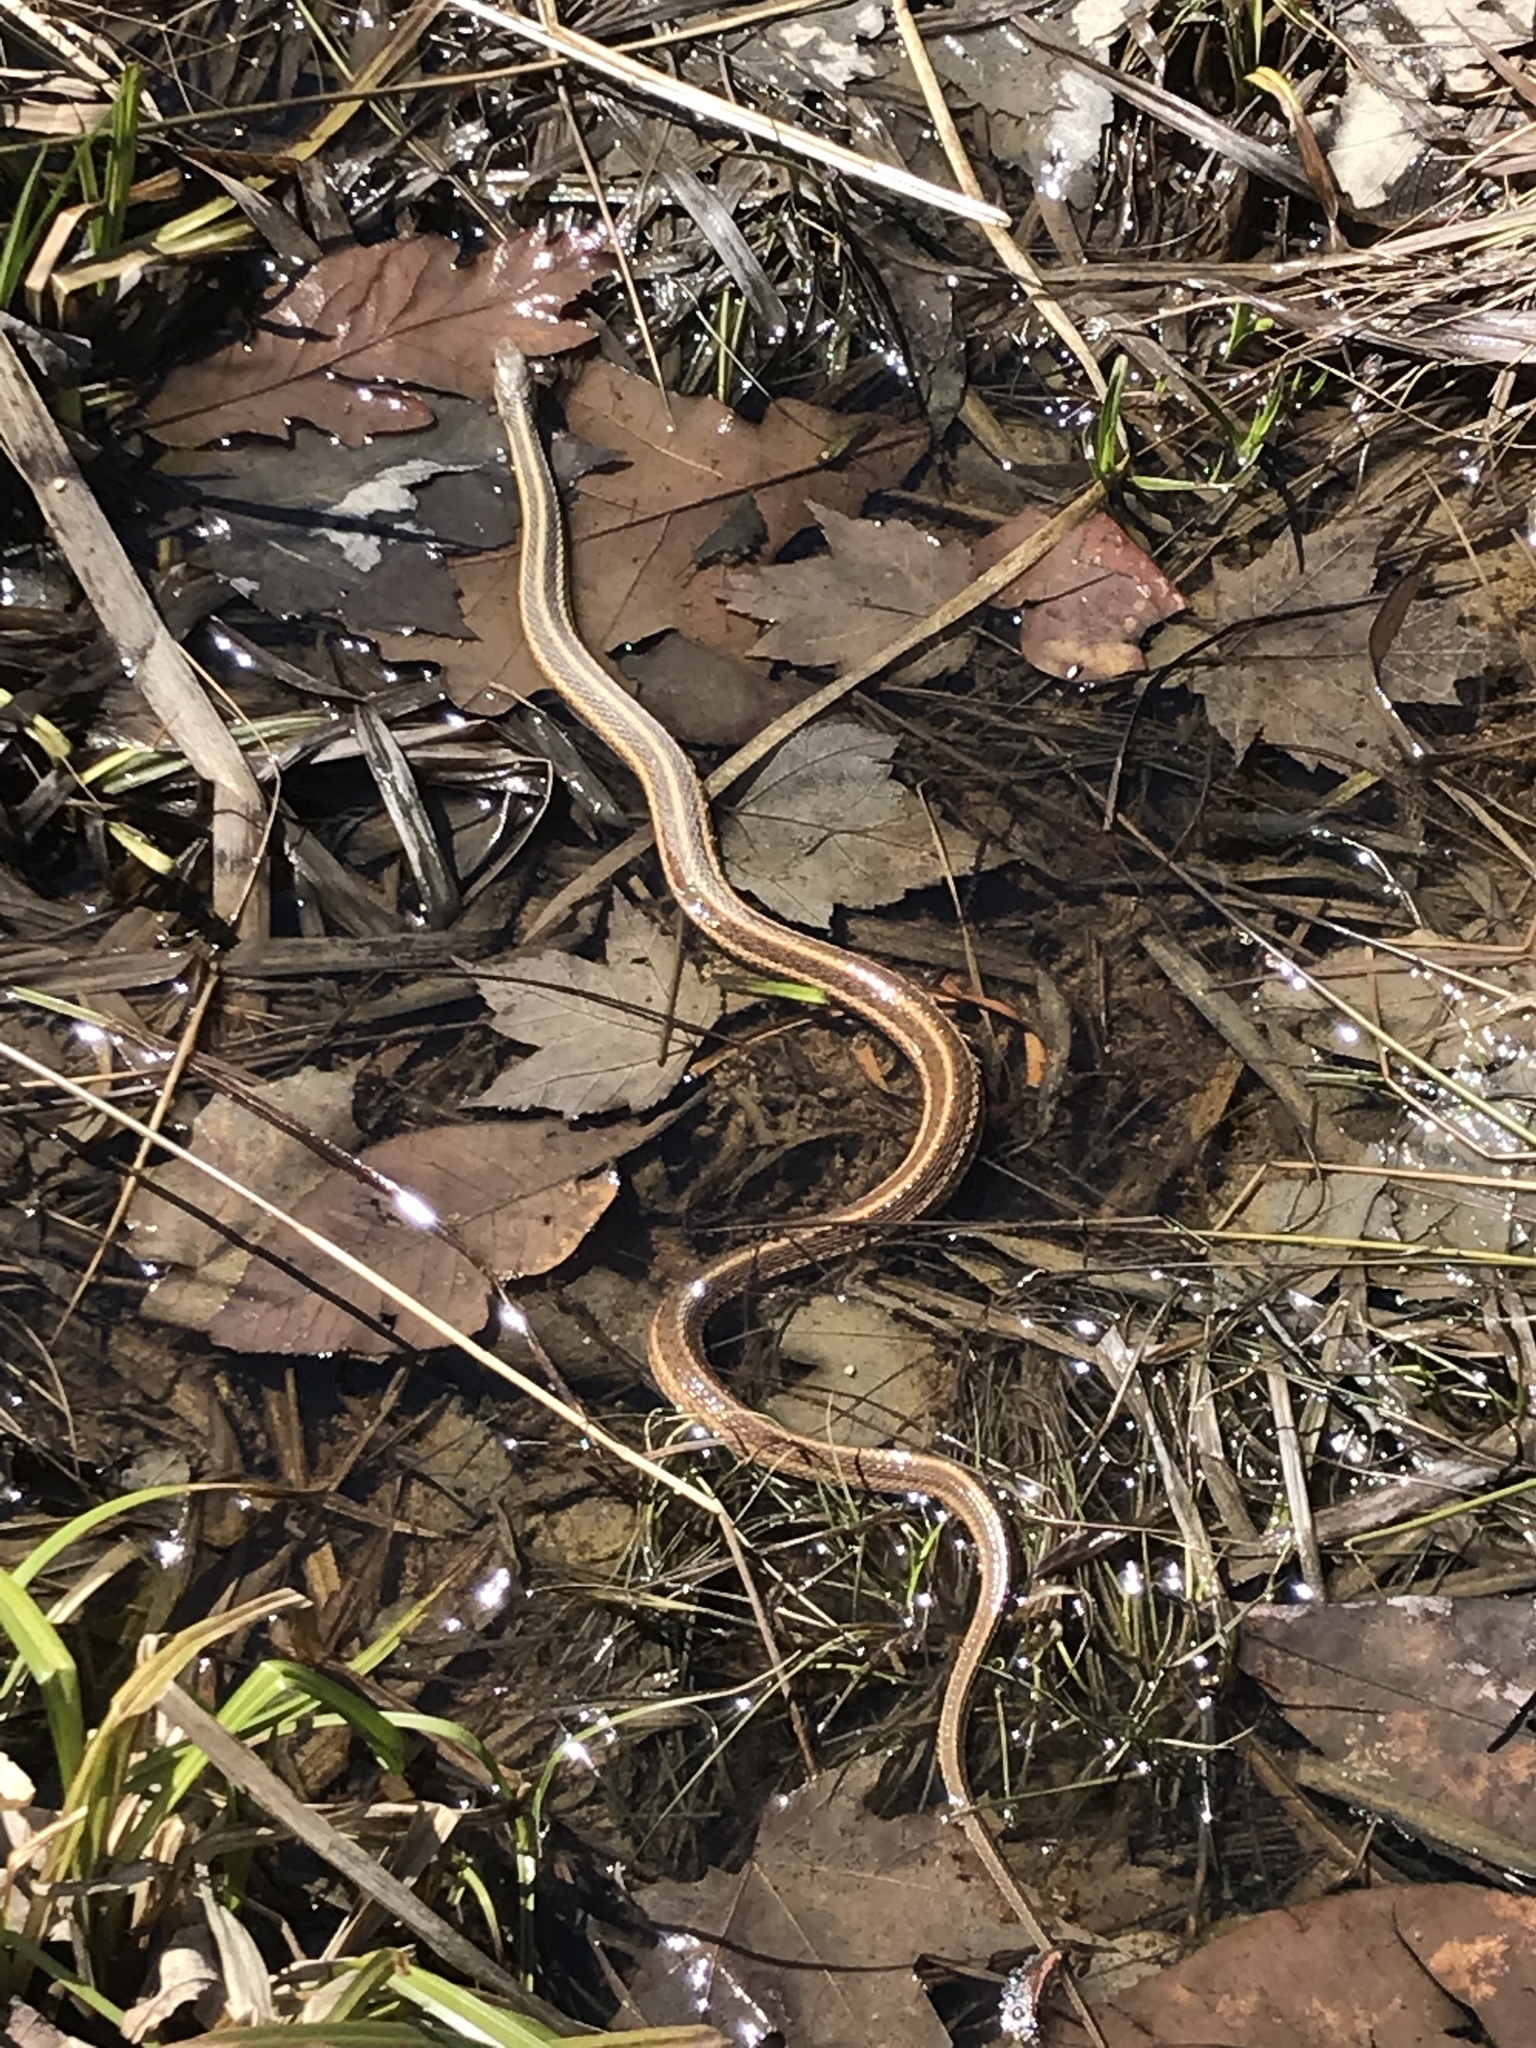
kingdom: Animalia
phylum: Chordata
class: Squamata
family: Colubridae
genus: Thamnophis
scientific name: Thamnophis saurita
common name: Eastern ribbonsnake
